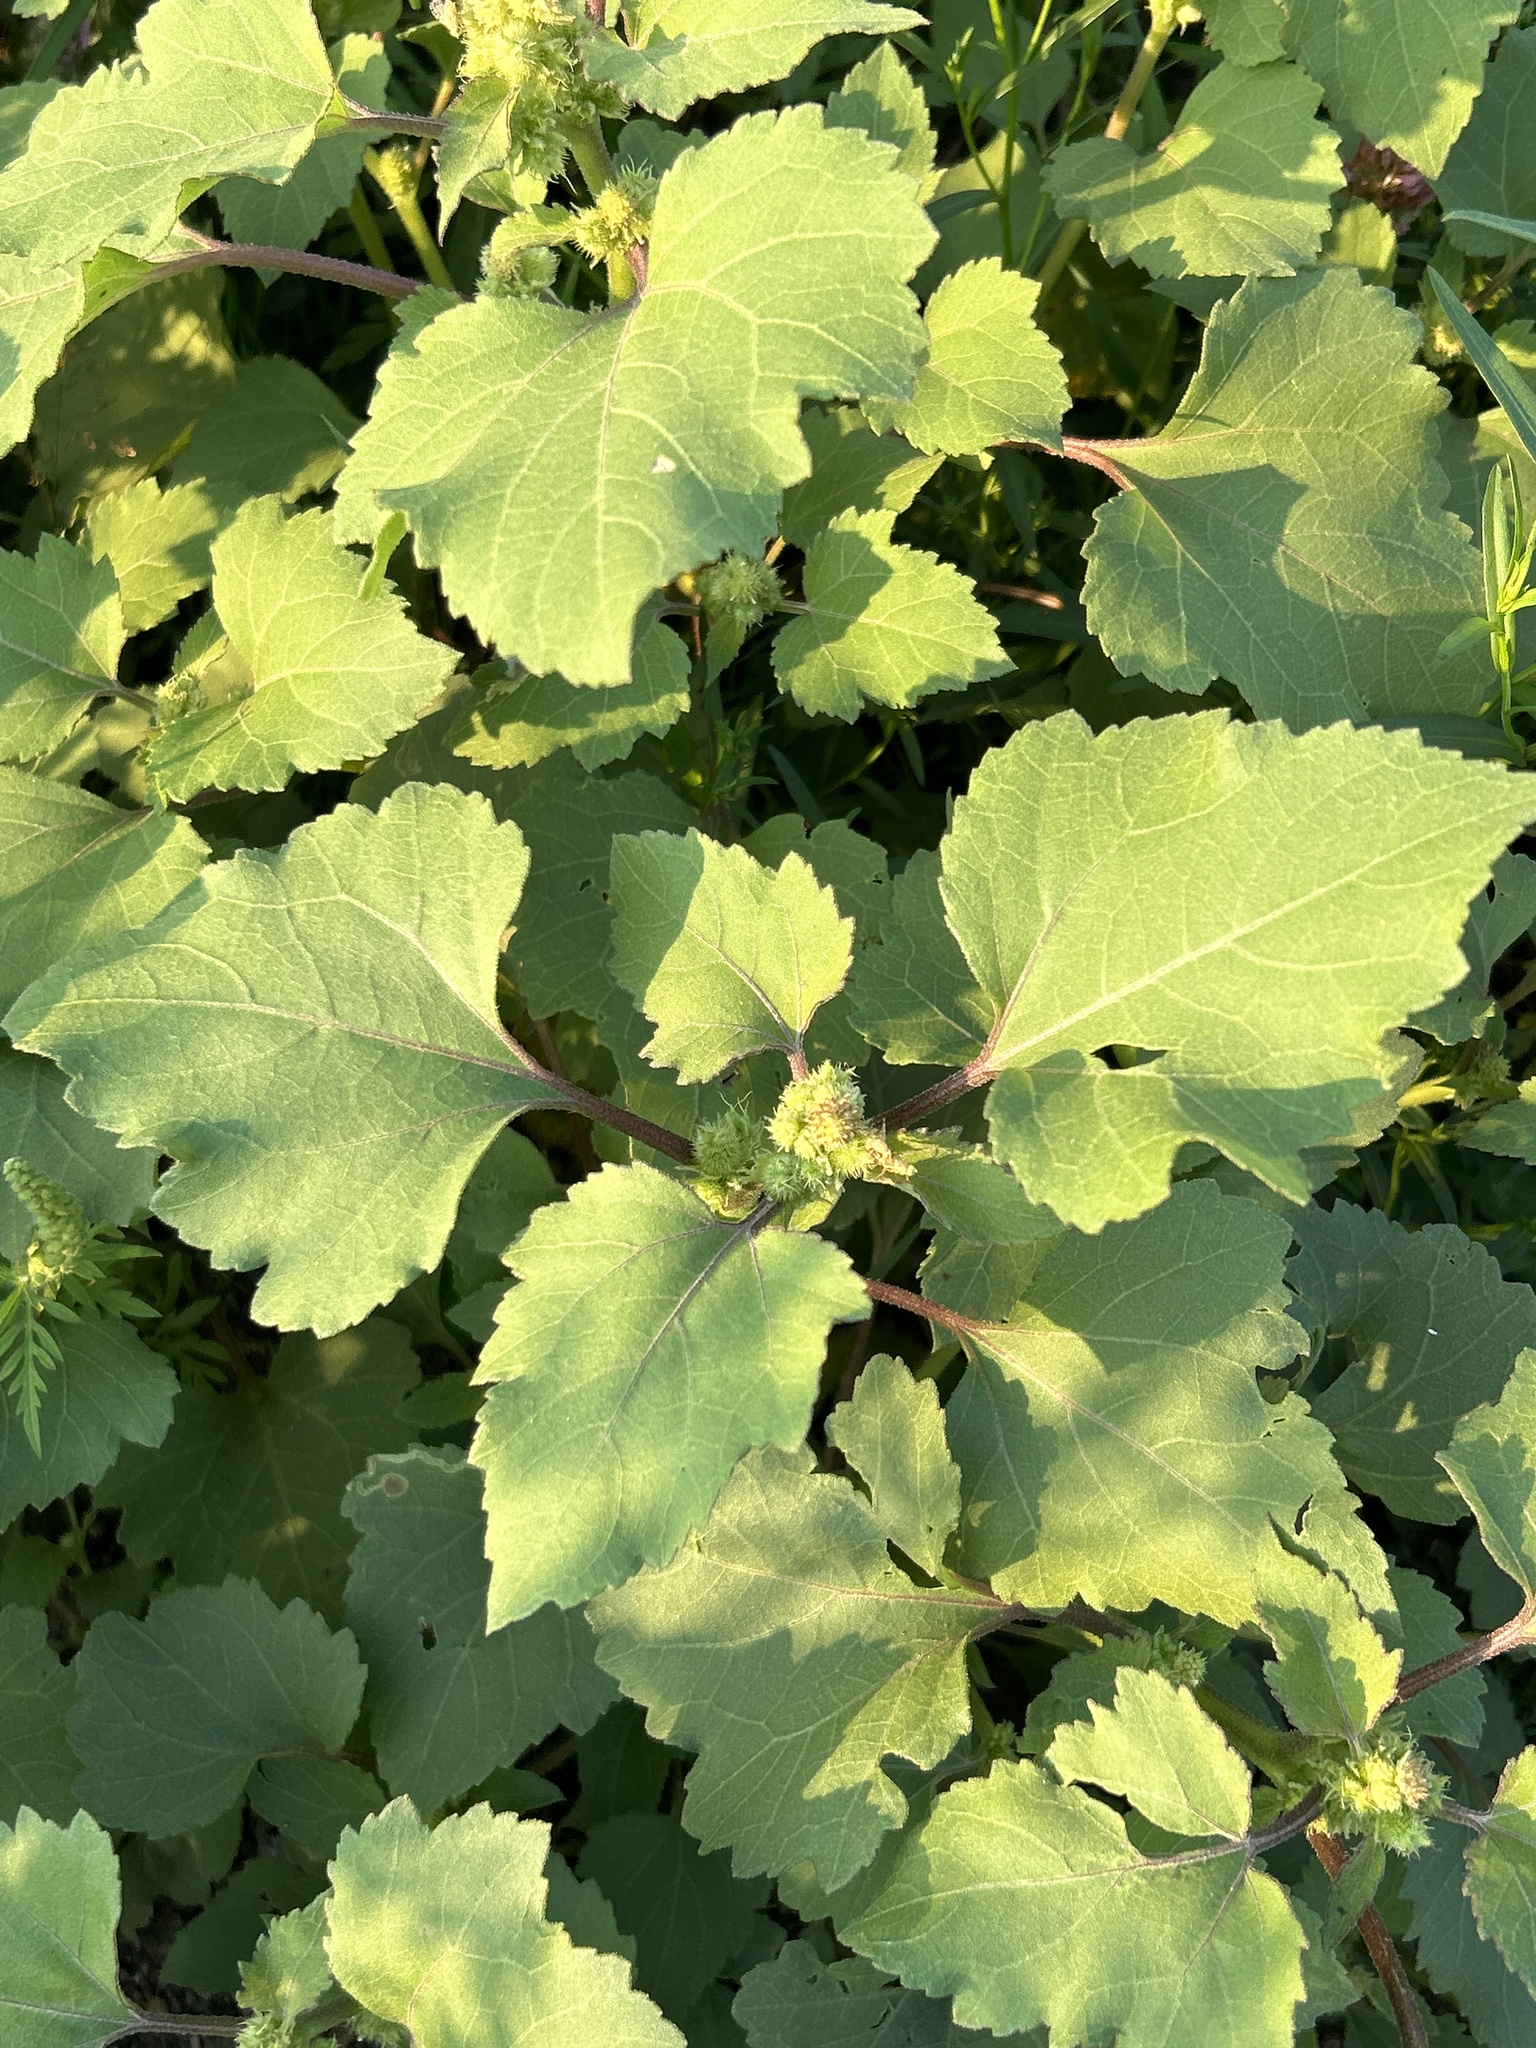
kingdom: Plantae
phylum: Tracheophyta
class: Magnoliopsida
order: Asterales
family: Asteraceae
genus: Xanthium
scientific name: Xanthium strumarium
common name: Rough cocklebur
